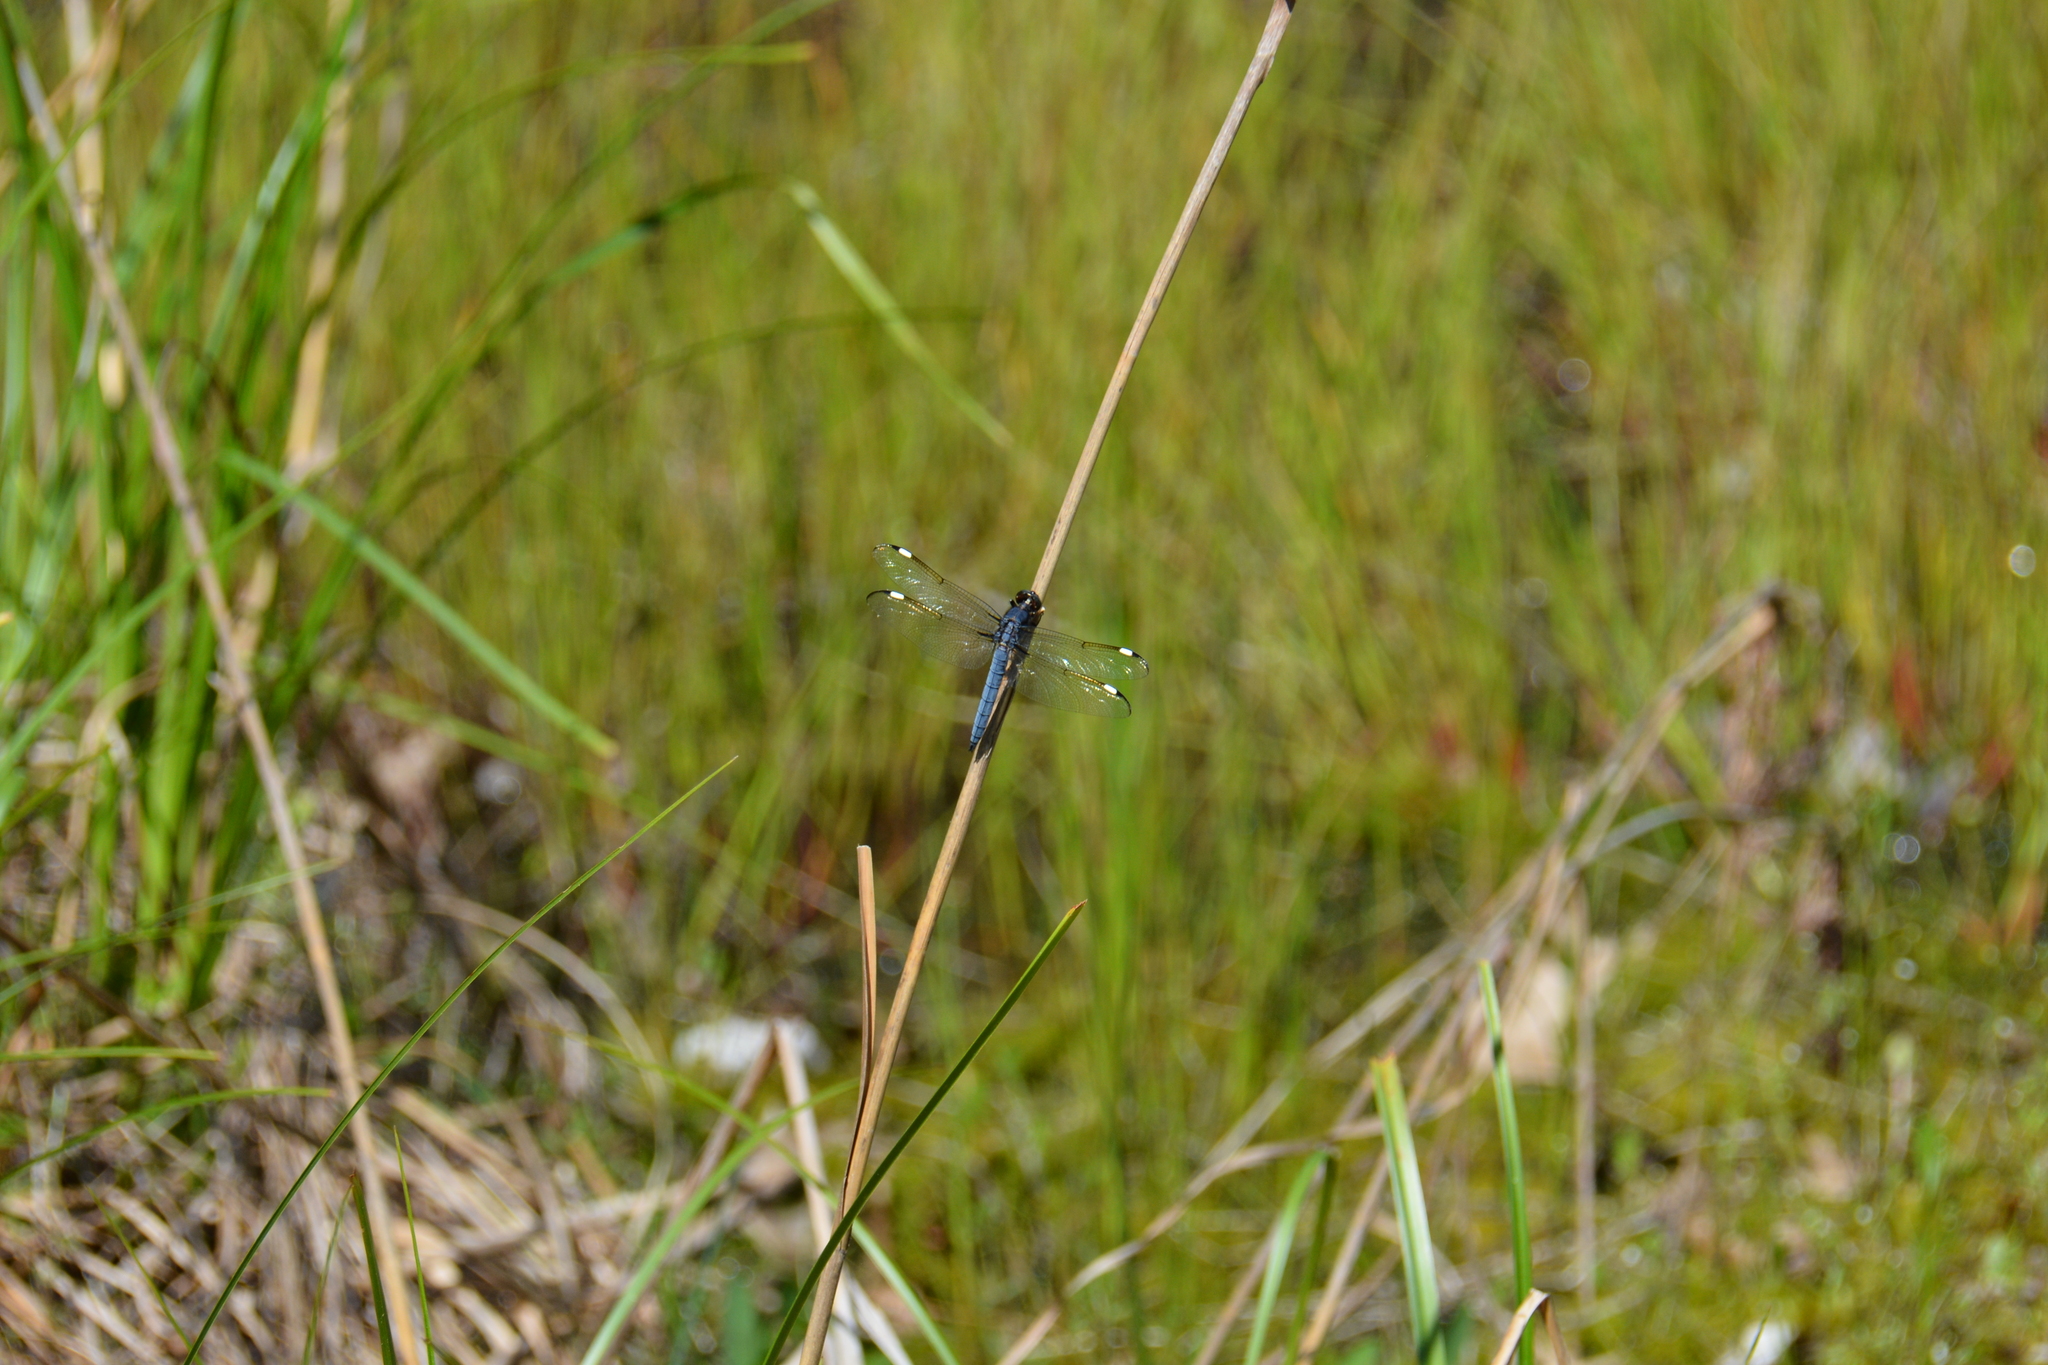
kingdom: Animalia
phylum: Arthropoda
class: Insecta
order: Odonata
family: Libellulidae
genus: Libellula
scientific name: Libellula cyanea
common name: Spangled skimmer
